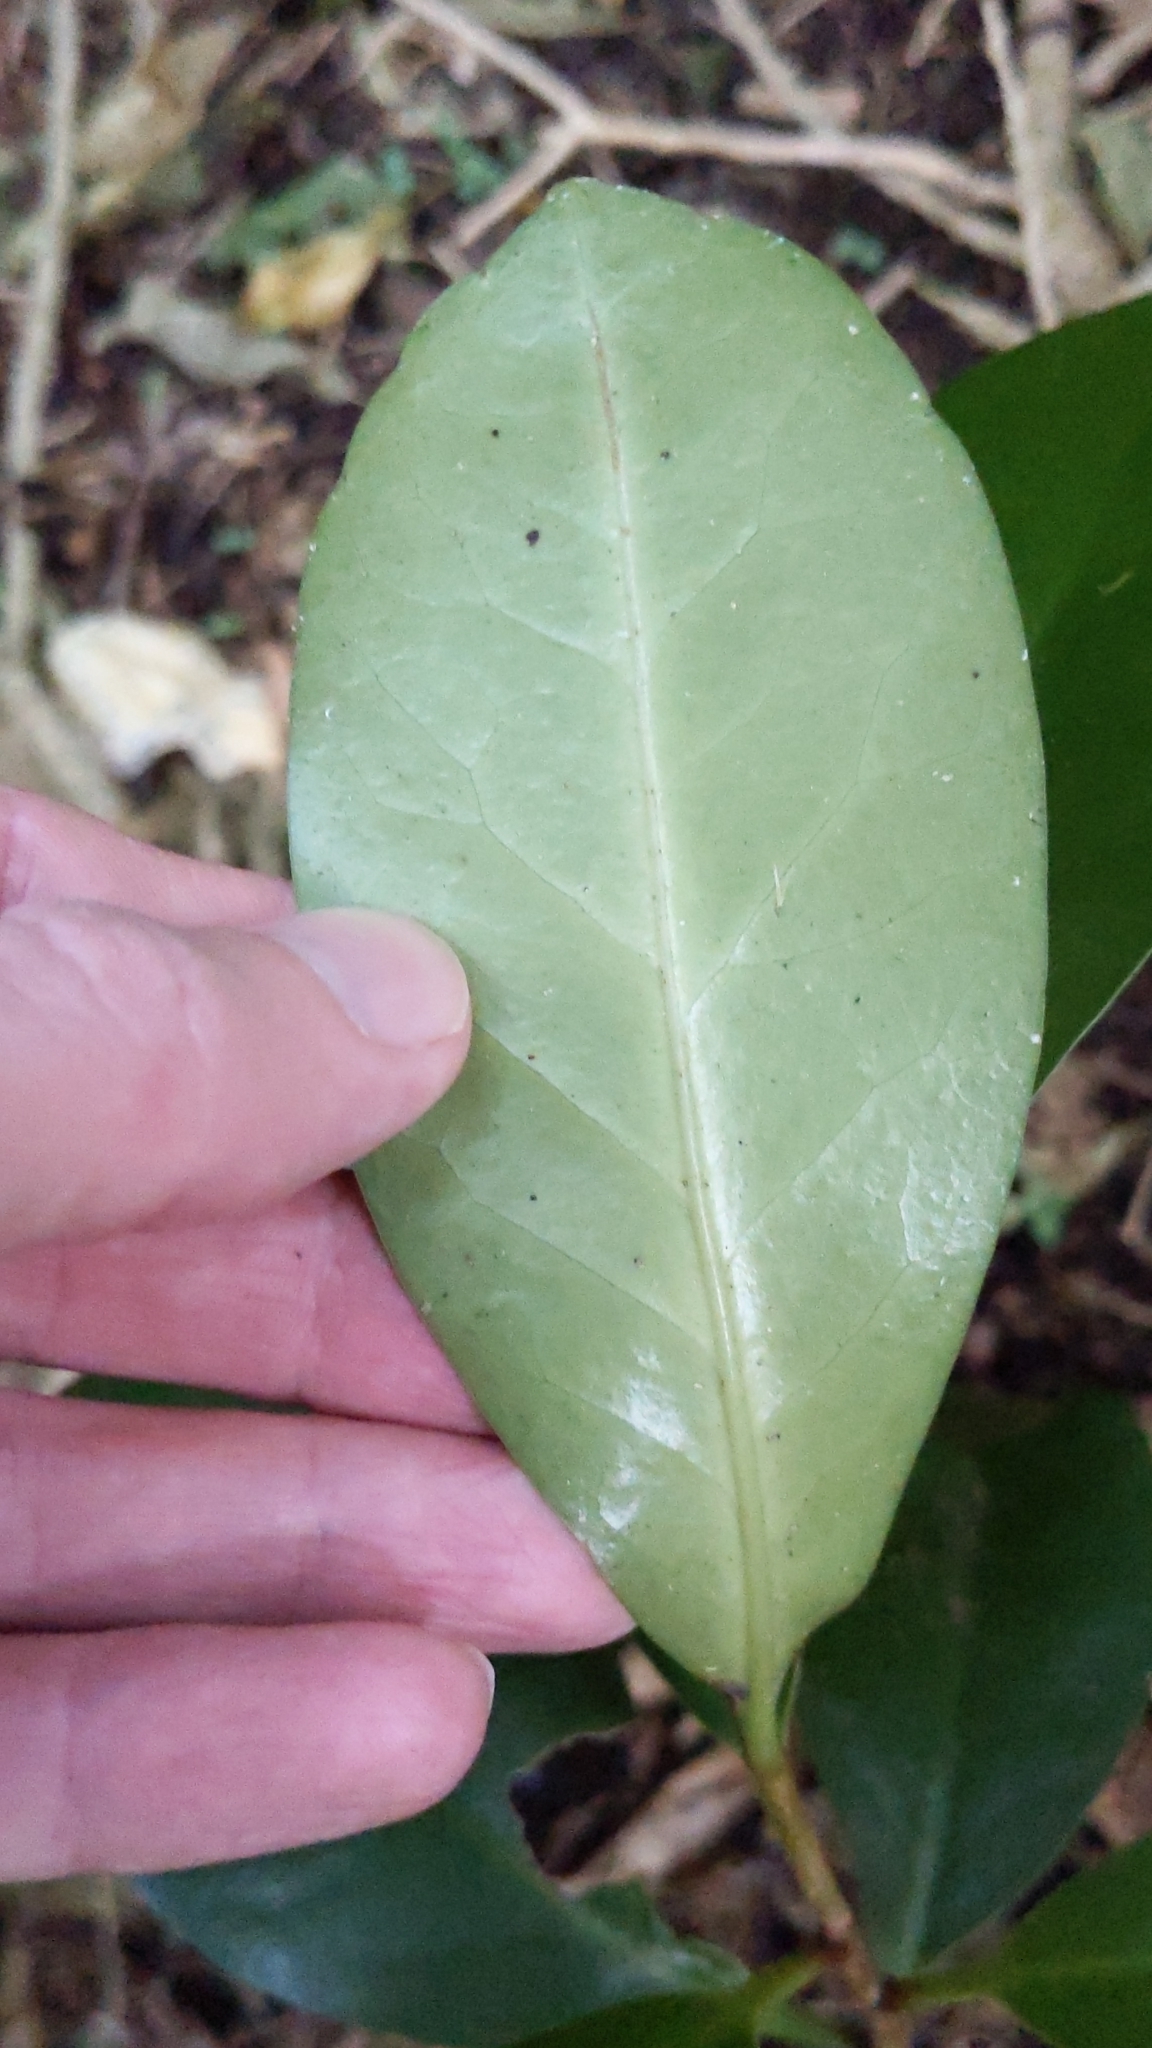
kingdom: Plantae
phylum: Tracheophyta
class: Magnoliopsida
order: Cucurbitales
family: Corynocarpaceae
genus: Corynocarpus
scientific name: Corynocarpus laevigatus
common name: New zealand laurel
